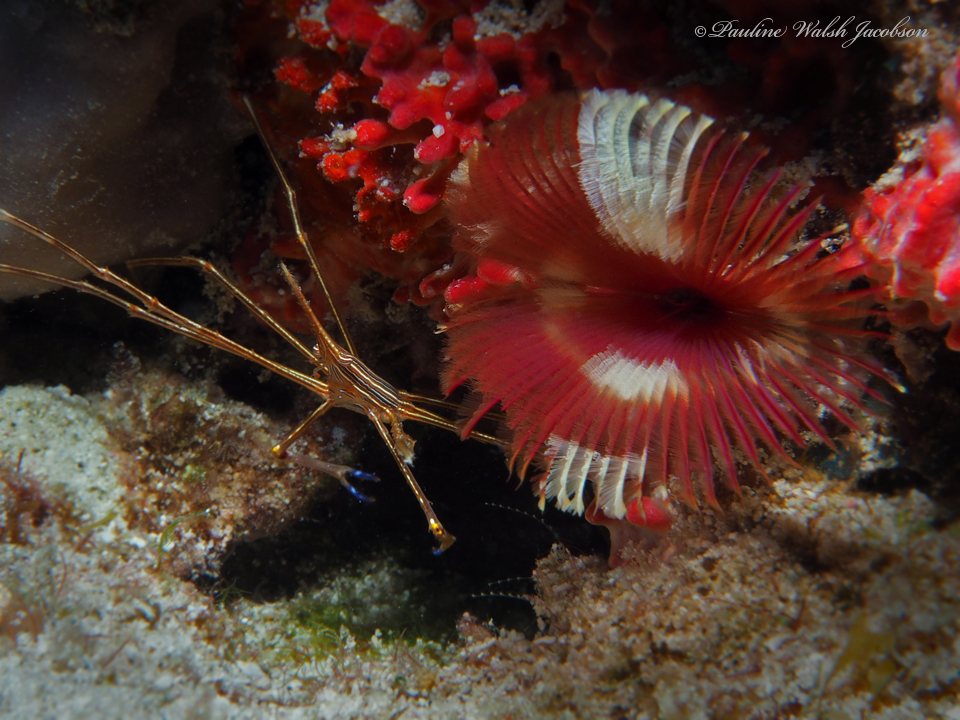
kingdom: Animalia
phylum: Arthropoda
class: Malacostraca
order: Decapoda
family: Inachoididae
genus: Stenorhynchus
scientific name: Stenorhynchus seticornis
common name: Arrow crab
